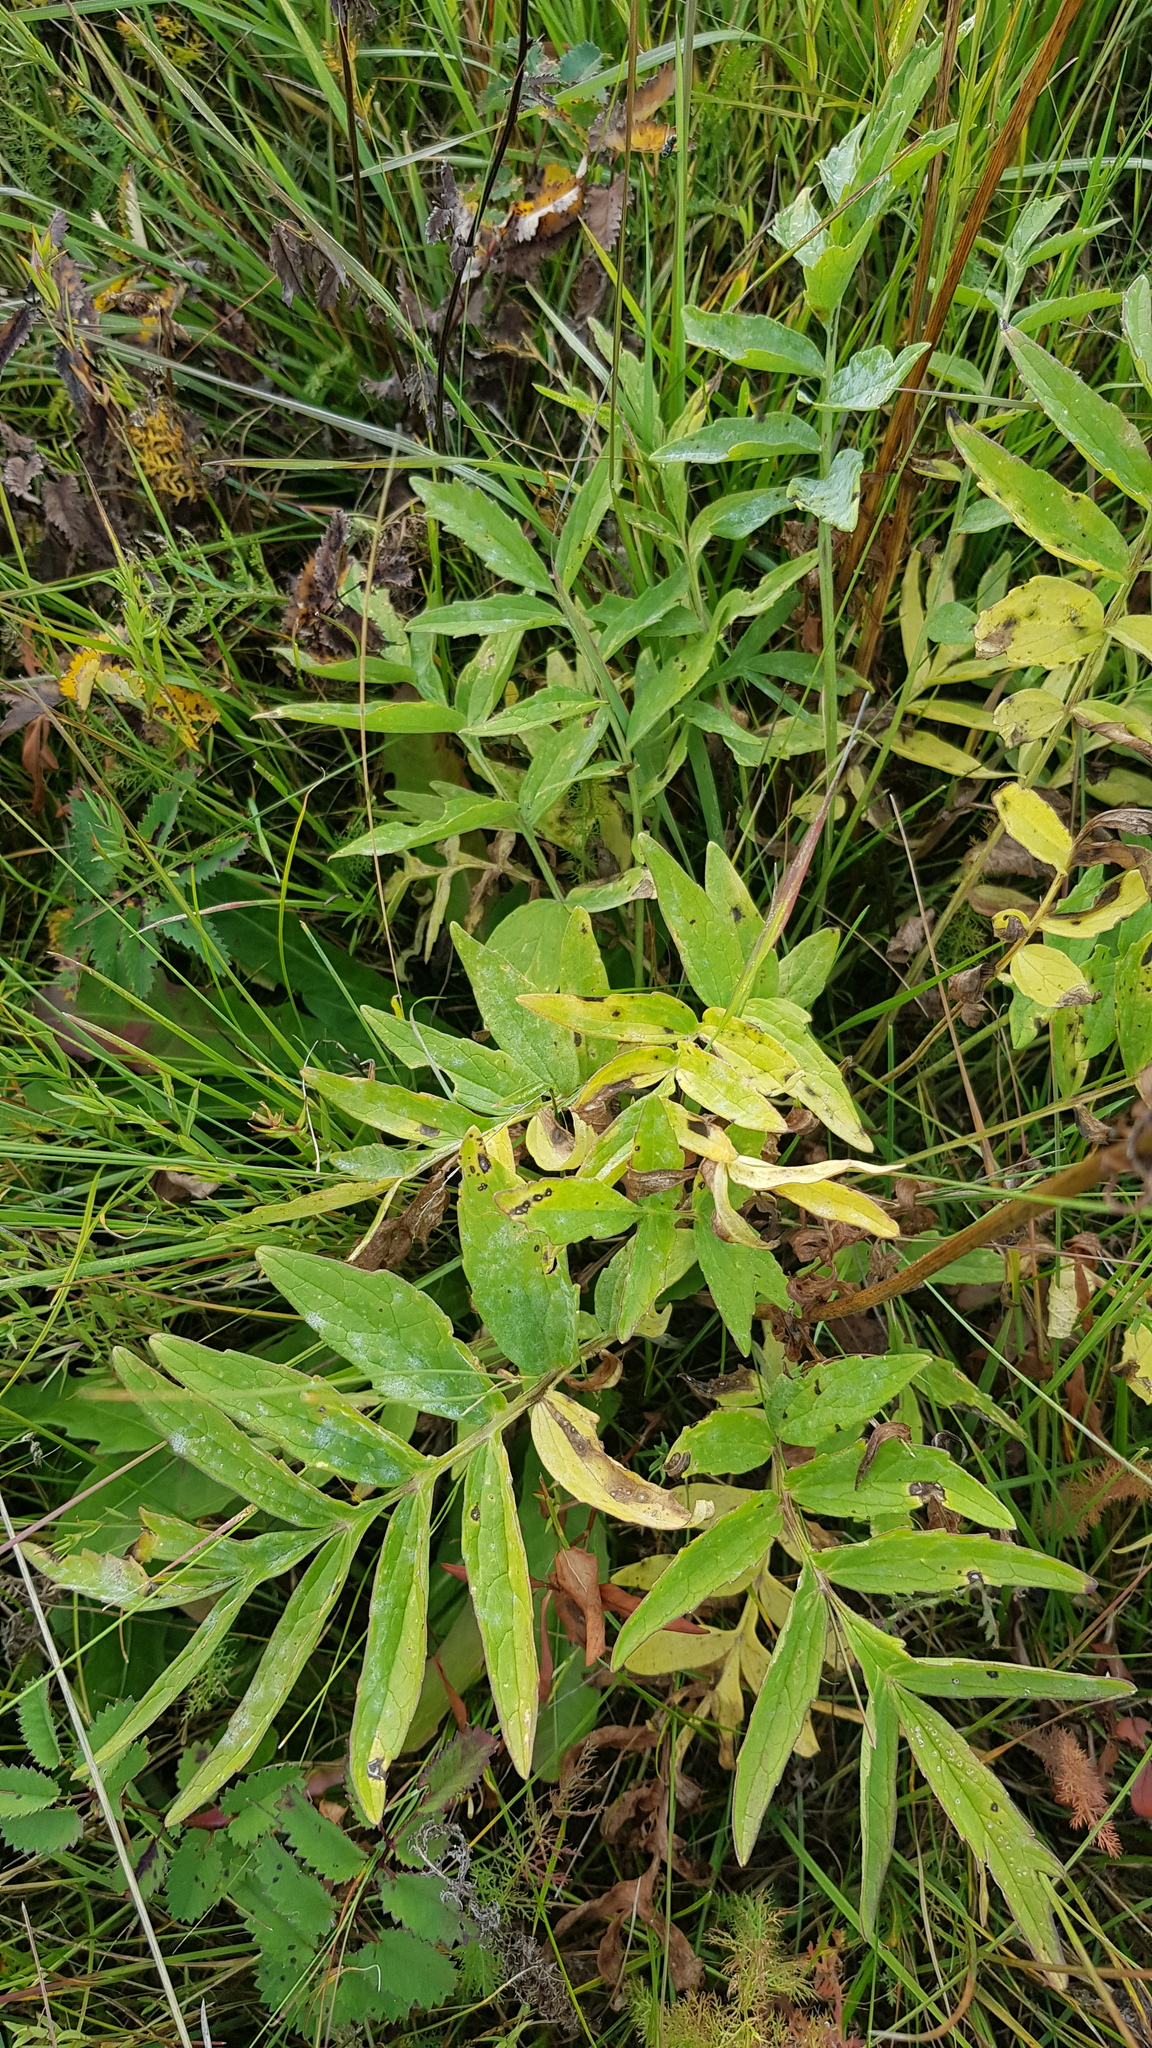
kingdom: Plantae
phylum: Tracheophyta
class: Magnoliopsida
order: Dipsacales
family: Caprifoliaceae
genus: Valeriana
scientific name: Valeriana officinalis
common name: Common valerian
